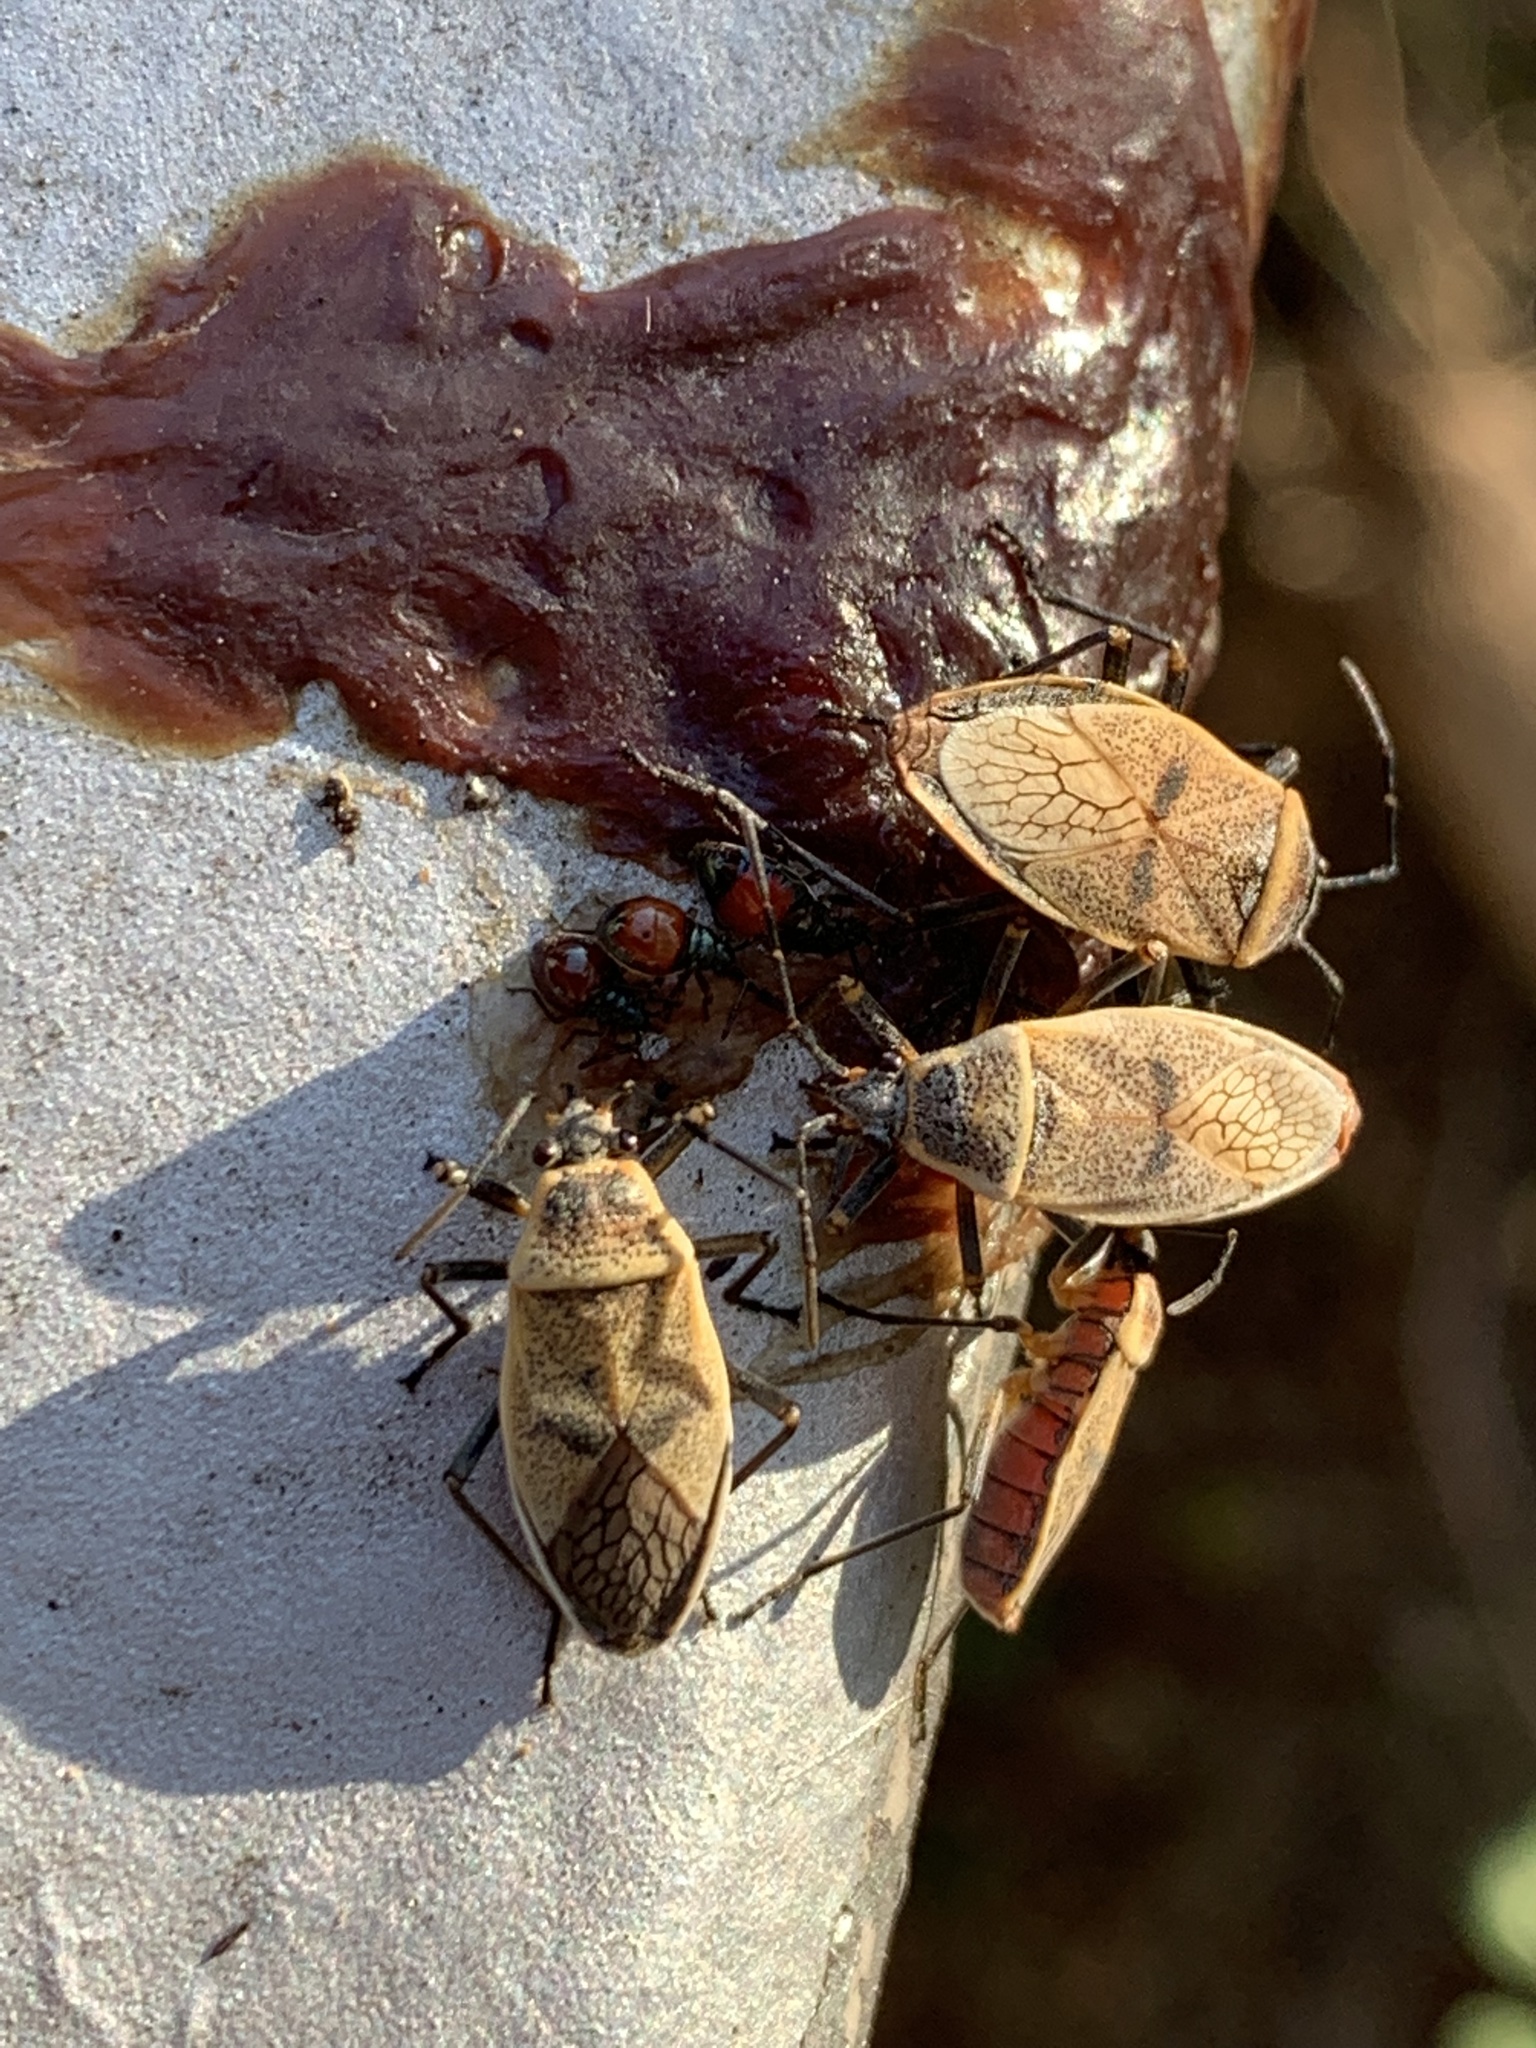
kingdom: Animalia
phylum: Arthropoda
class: Insecta
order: Hemiptera
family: Largidae
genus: Largus
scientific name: Largus maculatus
